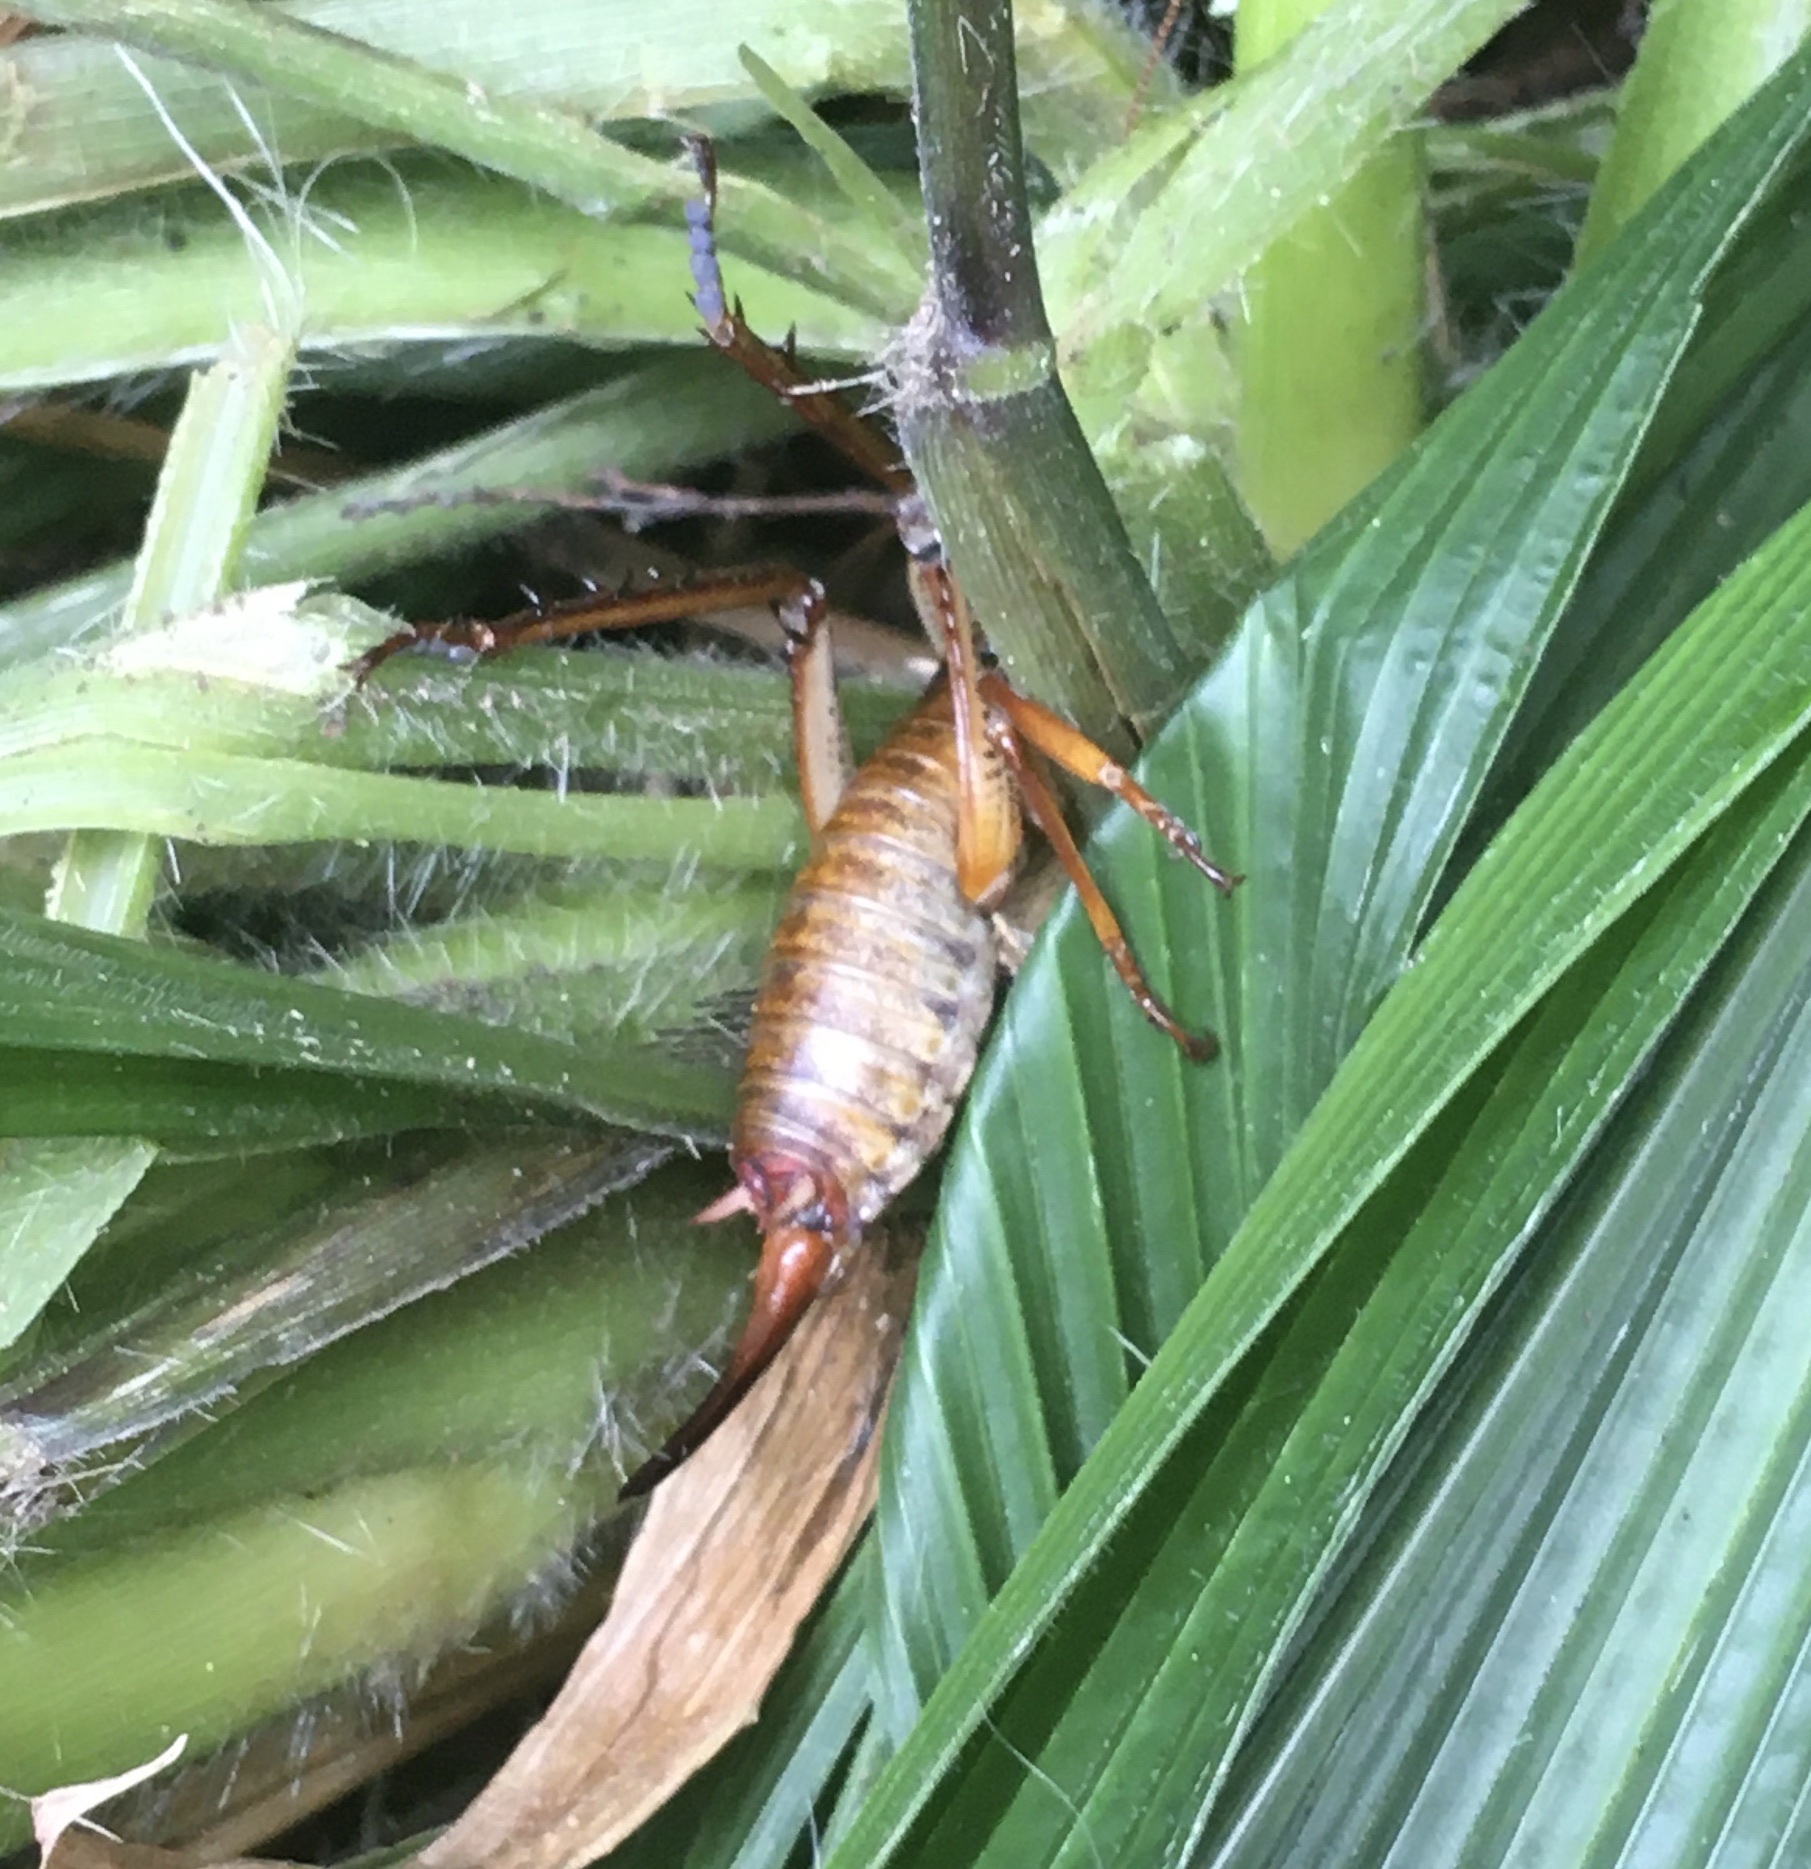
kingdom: Animalia
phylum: Arthropoda
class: Insecta
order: Orthoptera
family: Anostostomatidae
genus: Hemideina
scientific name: Hemideina thoracica
